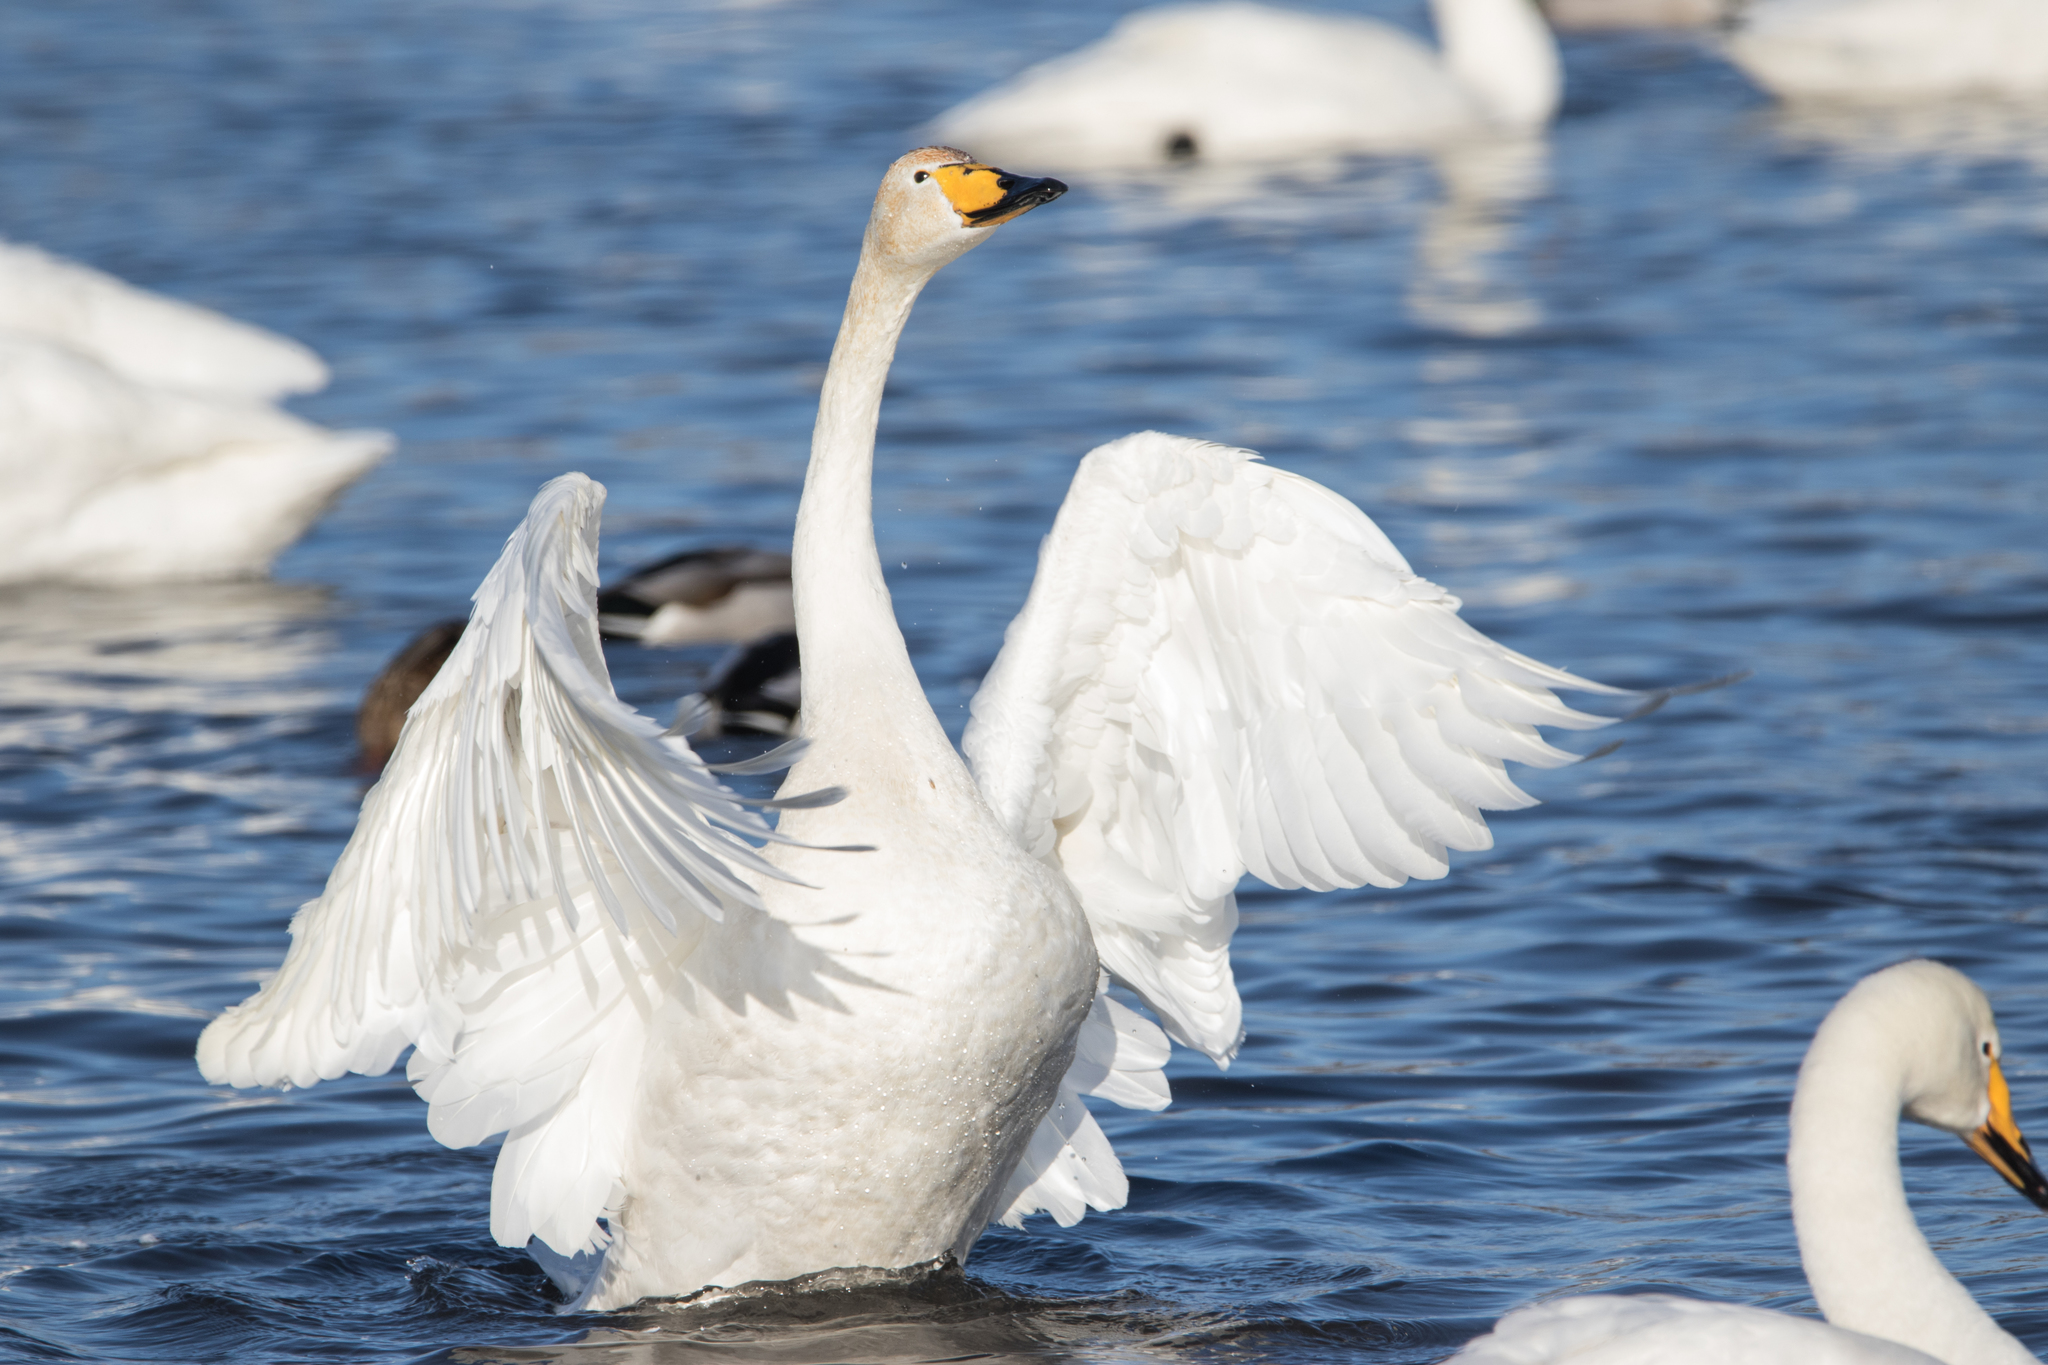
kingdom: Animalia
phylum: Chordata
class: Aves
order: Anseriformes
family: Anatidae
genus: Cygnus
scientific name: Cygnus cygnus
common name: Whooper swan
